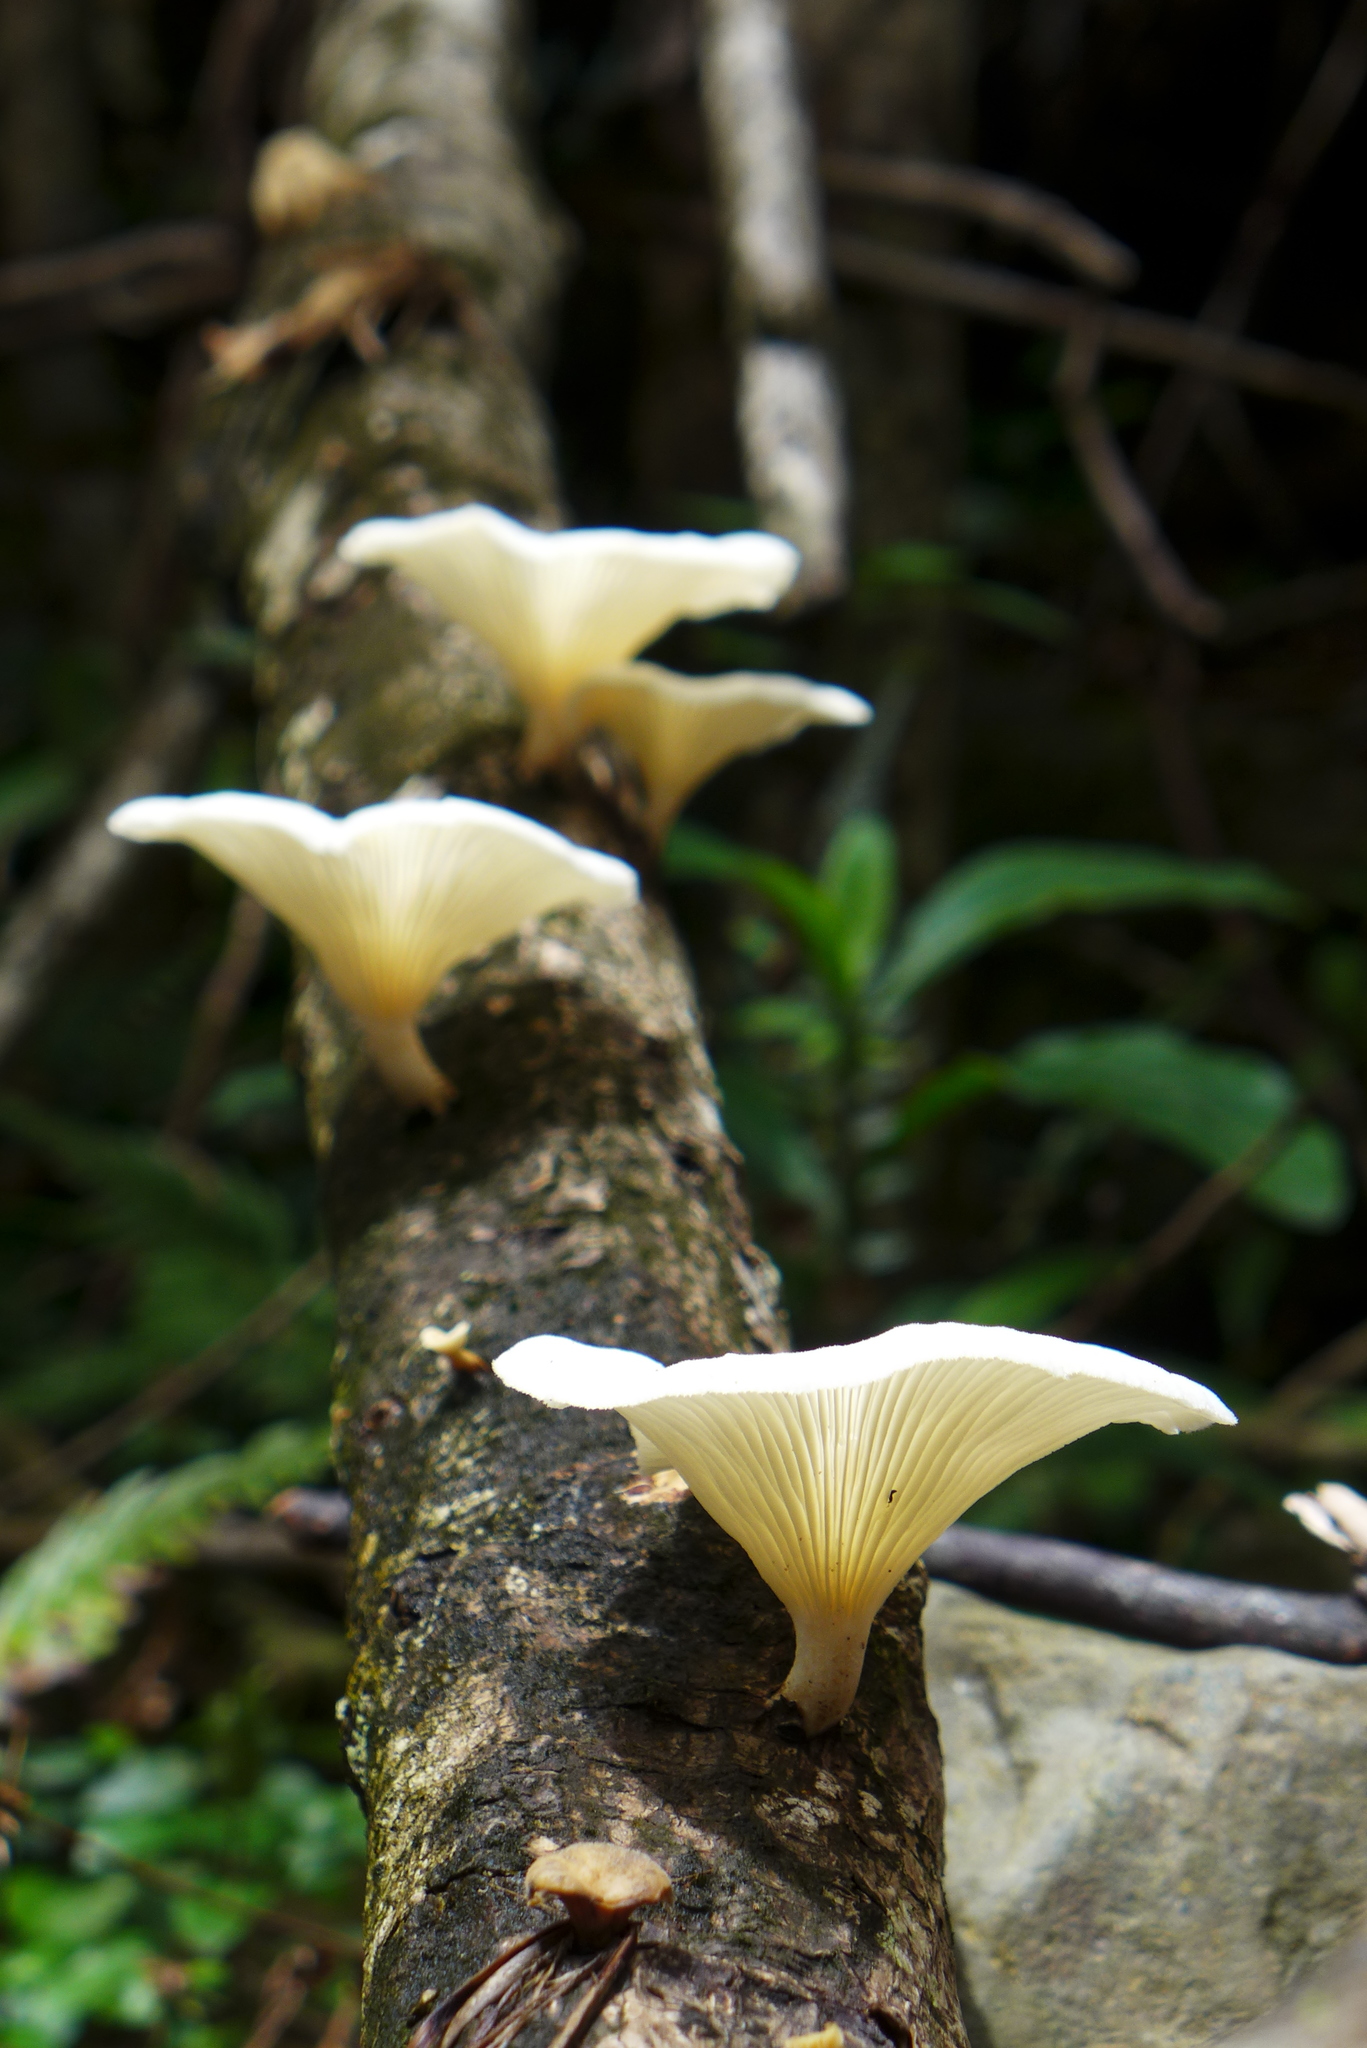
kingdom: Fungi
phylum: Basidiomycota
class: Agaricomycetes
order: Polyporales
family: Polyporaceae
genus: Lentinus
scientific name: Lentinus scleropus
